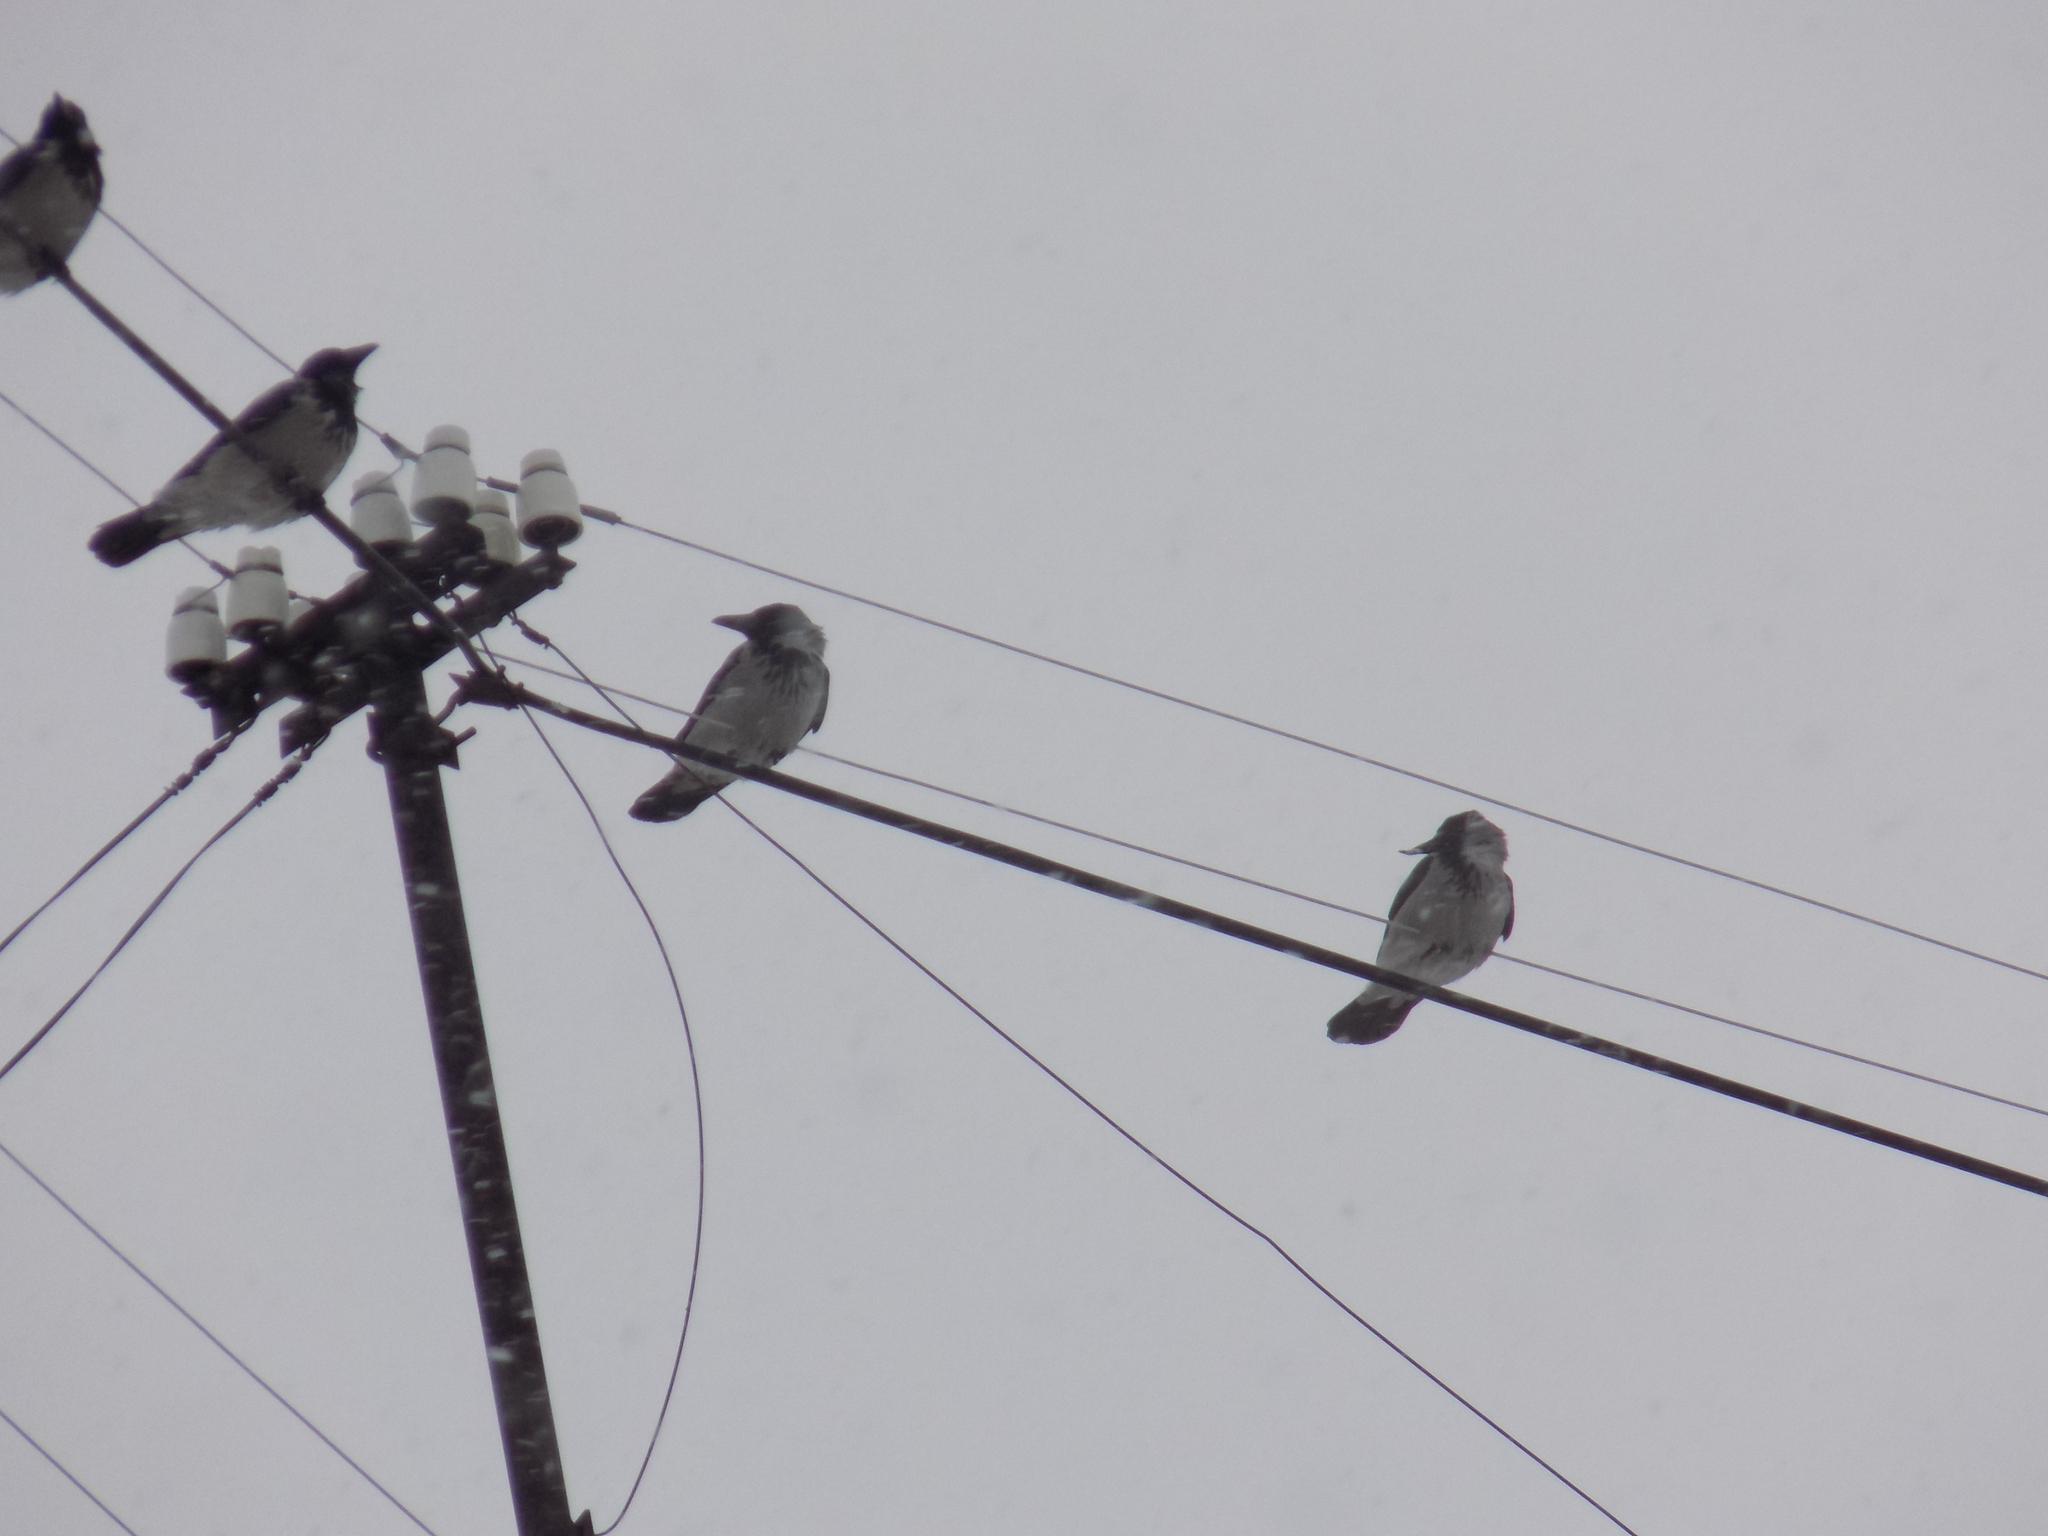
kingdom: Animalia
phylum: Chordata
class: Aves
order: Passeriformes
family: Corvidae
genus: Corvus
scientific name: Corvus cornix
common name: Hooded crow
